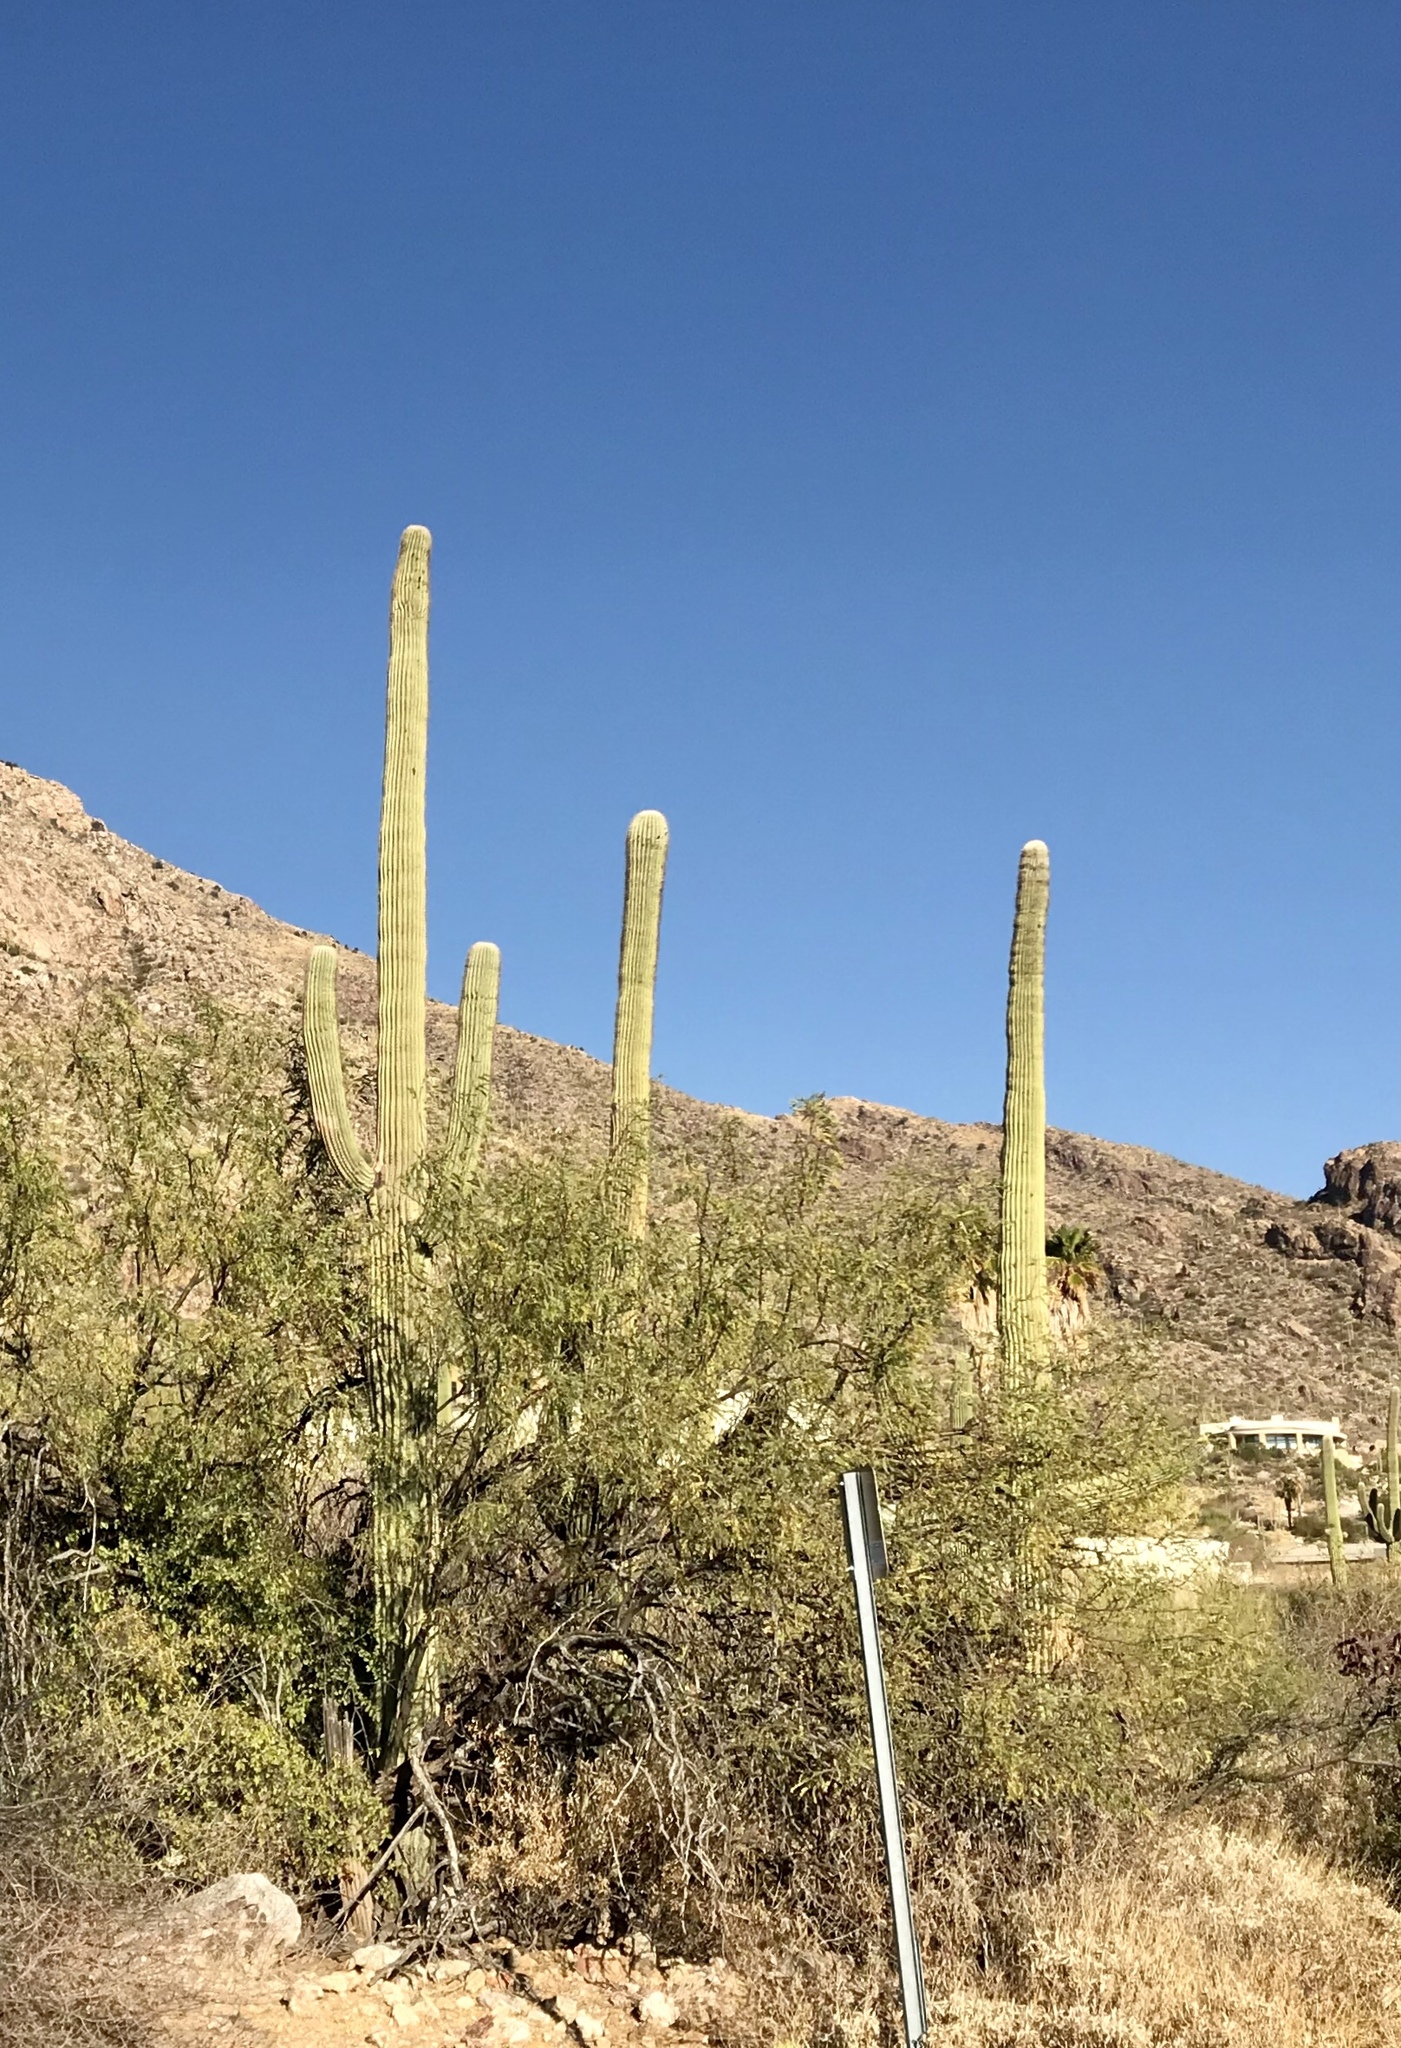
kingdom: Plantae
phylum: Tracheophyta
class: Magnoliopsida
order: Caryophyllales
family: Cactaceae
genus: Carnegiea
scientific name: Carnegiea gigantea
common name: Saguaro
